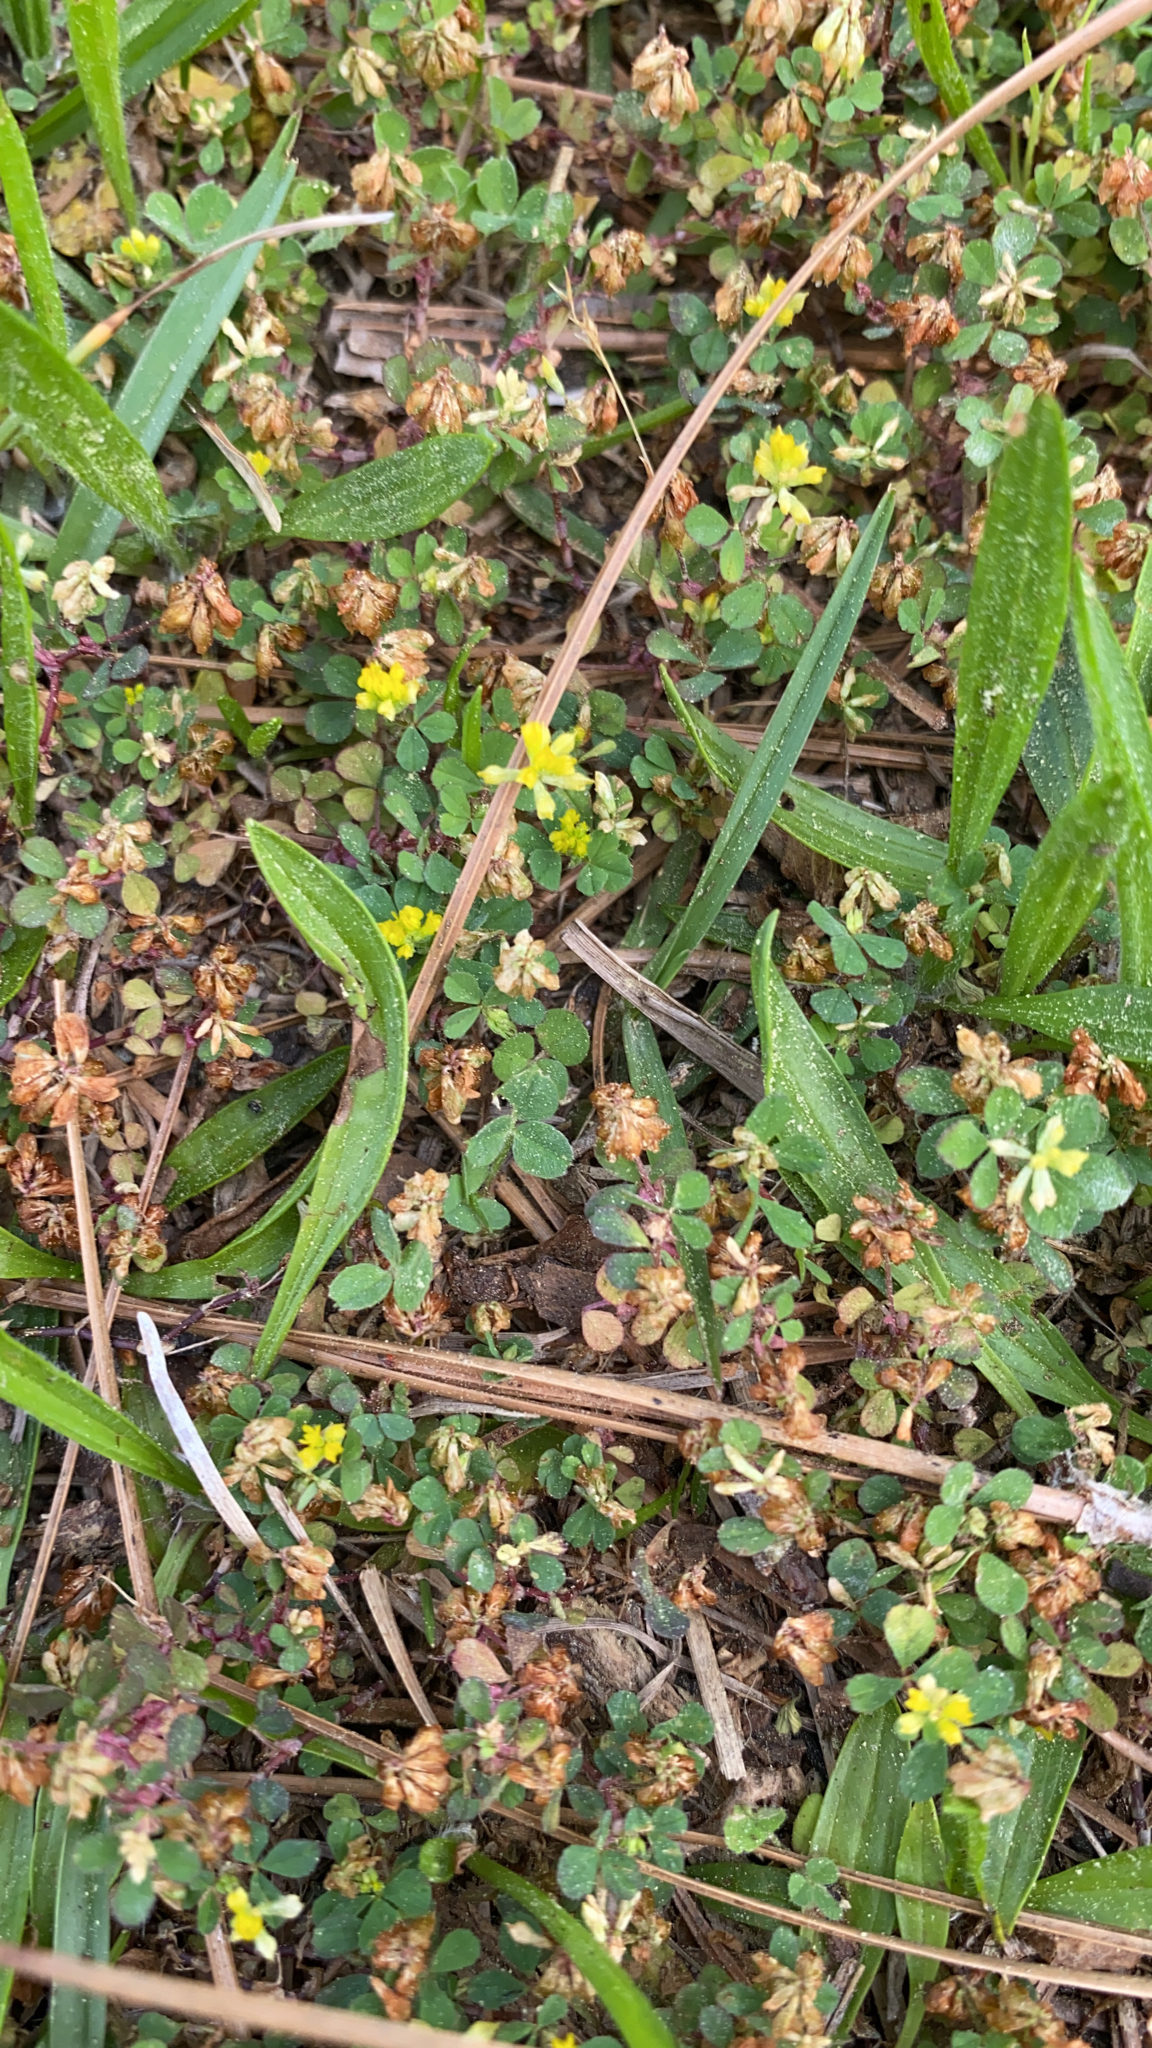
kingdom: Plantae
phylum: Tracheophyta
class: Magnoliopsida
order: Fabales
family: Fabaceae
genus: Trifolium
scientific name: Trifolium dubium
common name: Suckling clover
